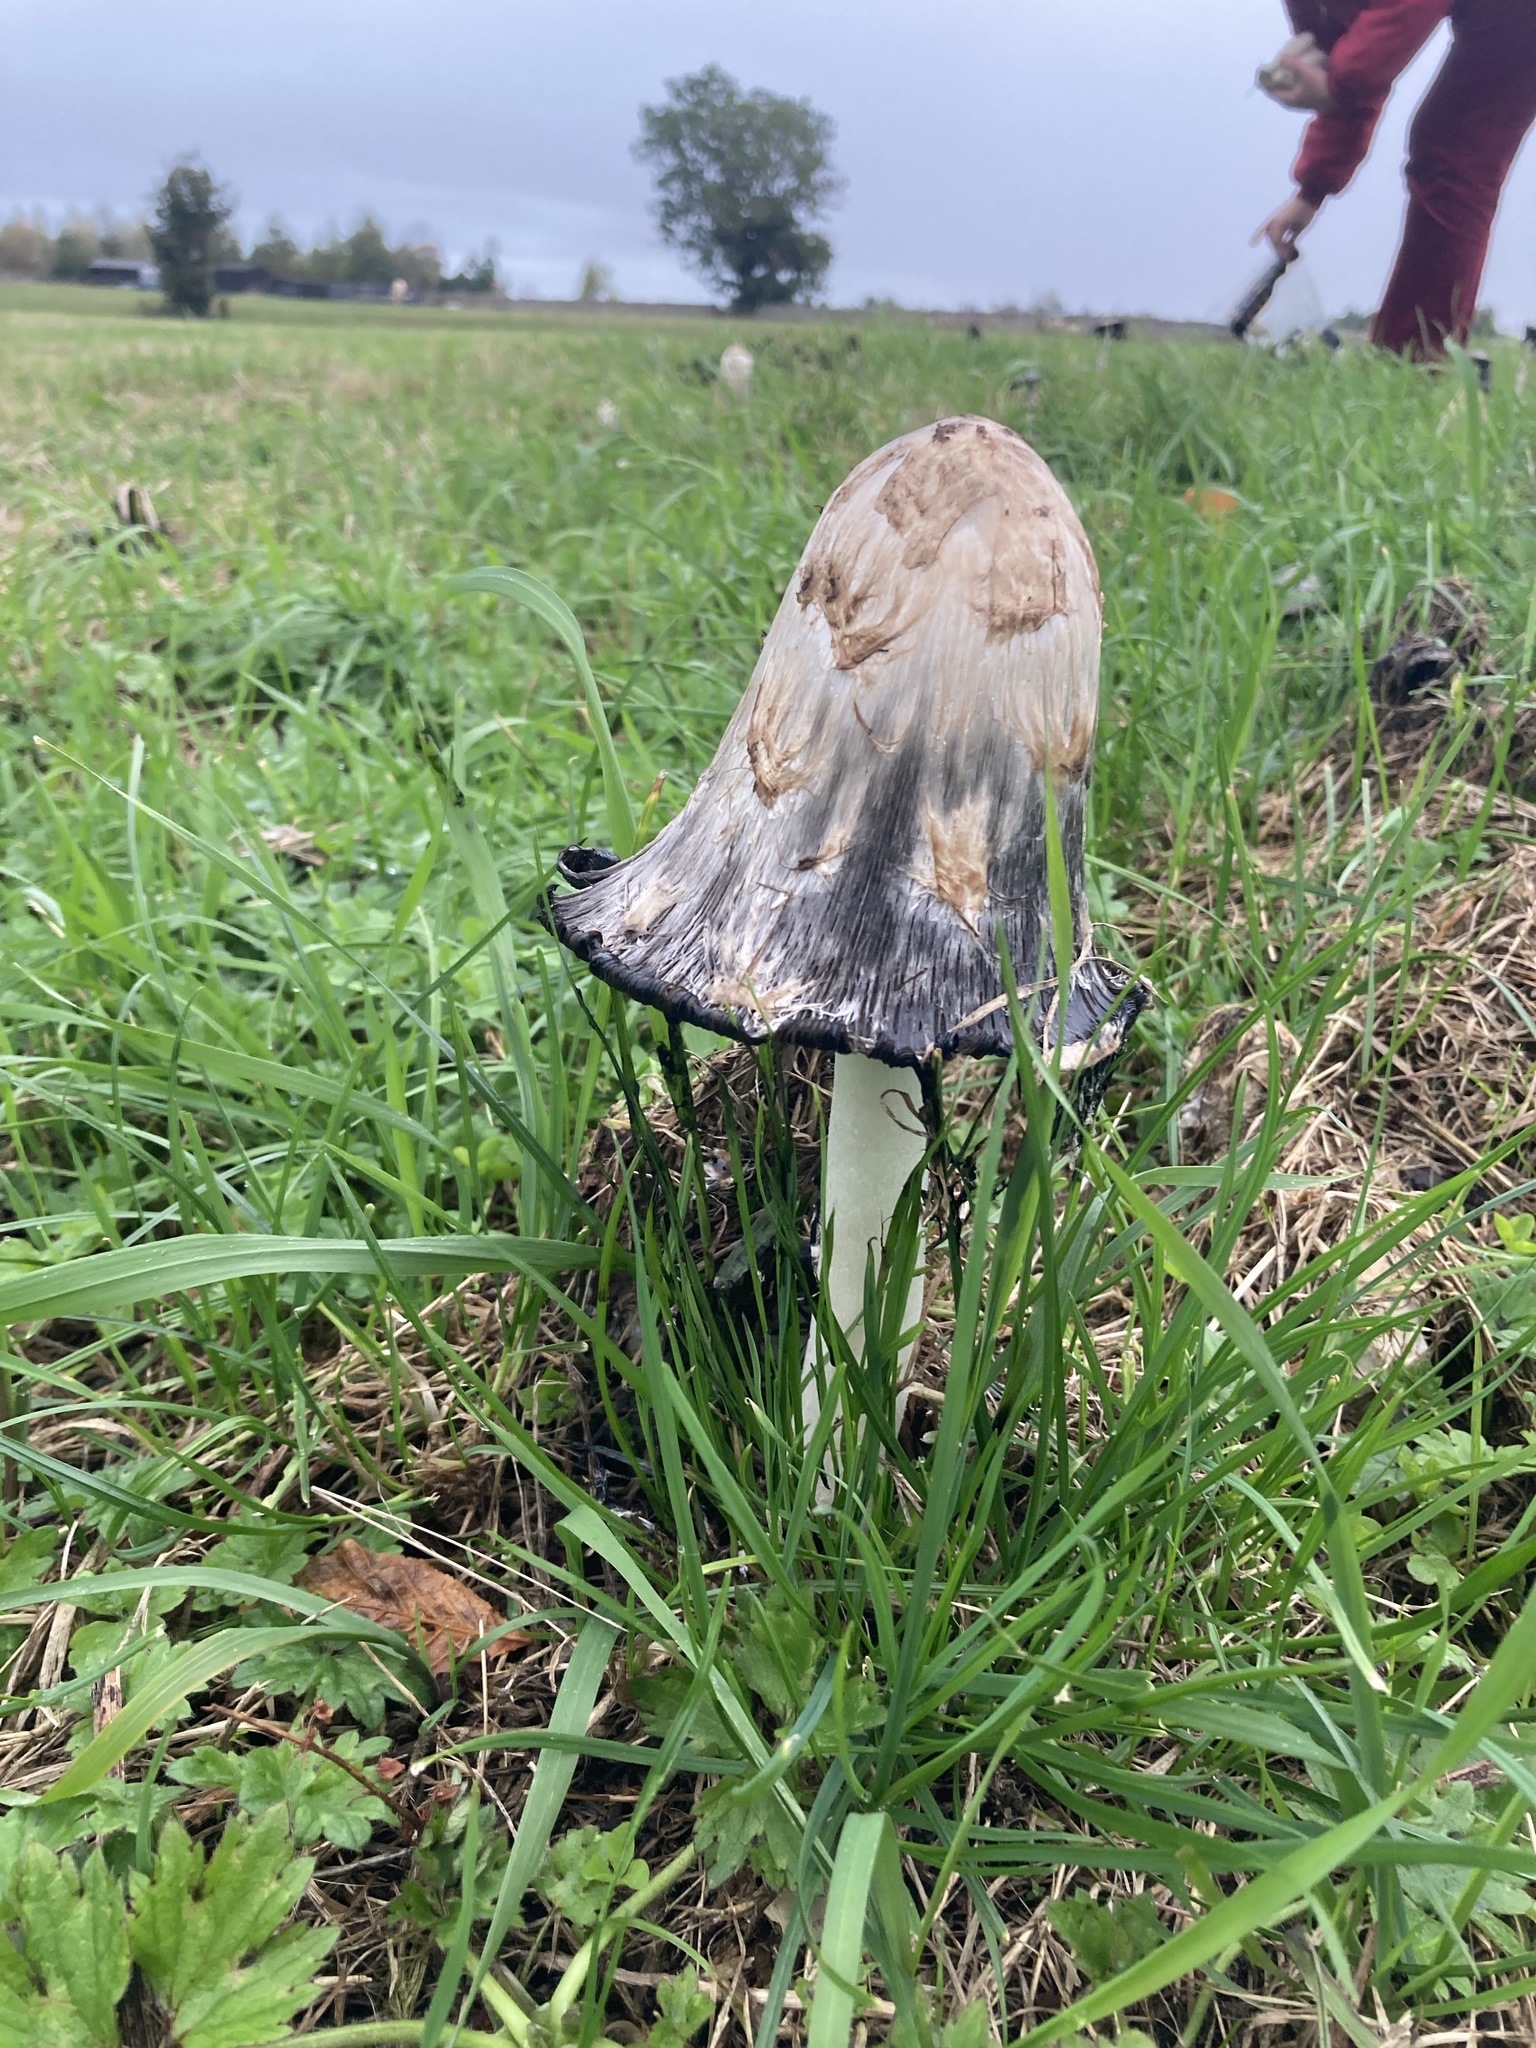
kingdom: Fungi
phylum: Basidiomycota
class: Agaricomycetes
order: Agaricales
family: Agaricaceae
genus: Coprinus
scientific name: Coprinus comatus
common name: Lawyer's wig
